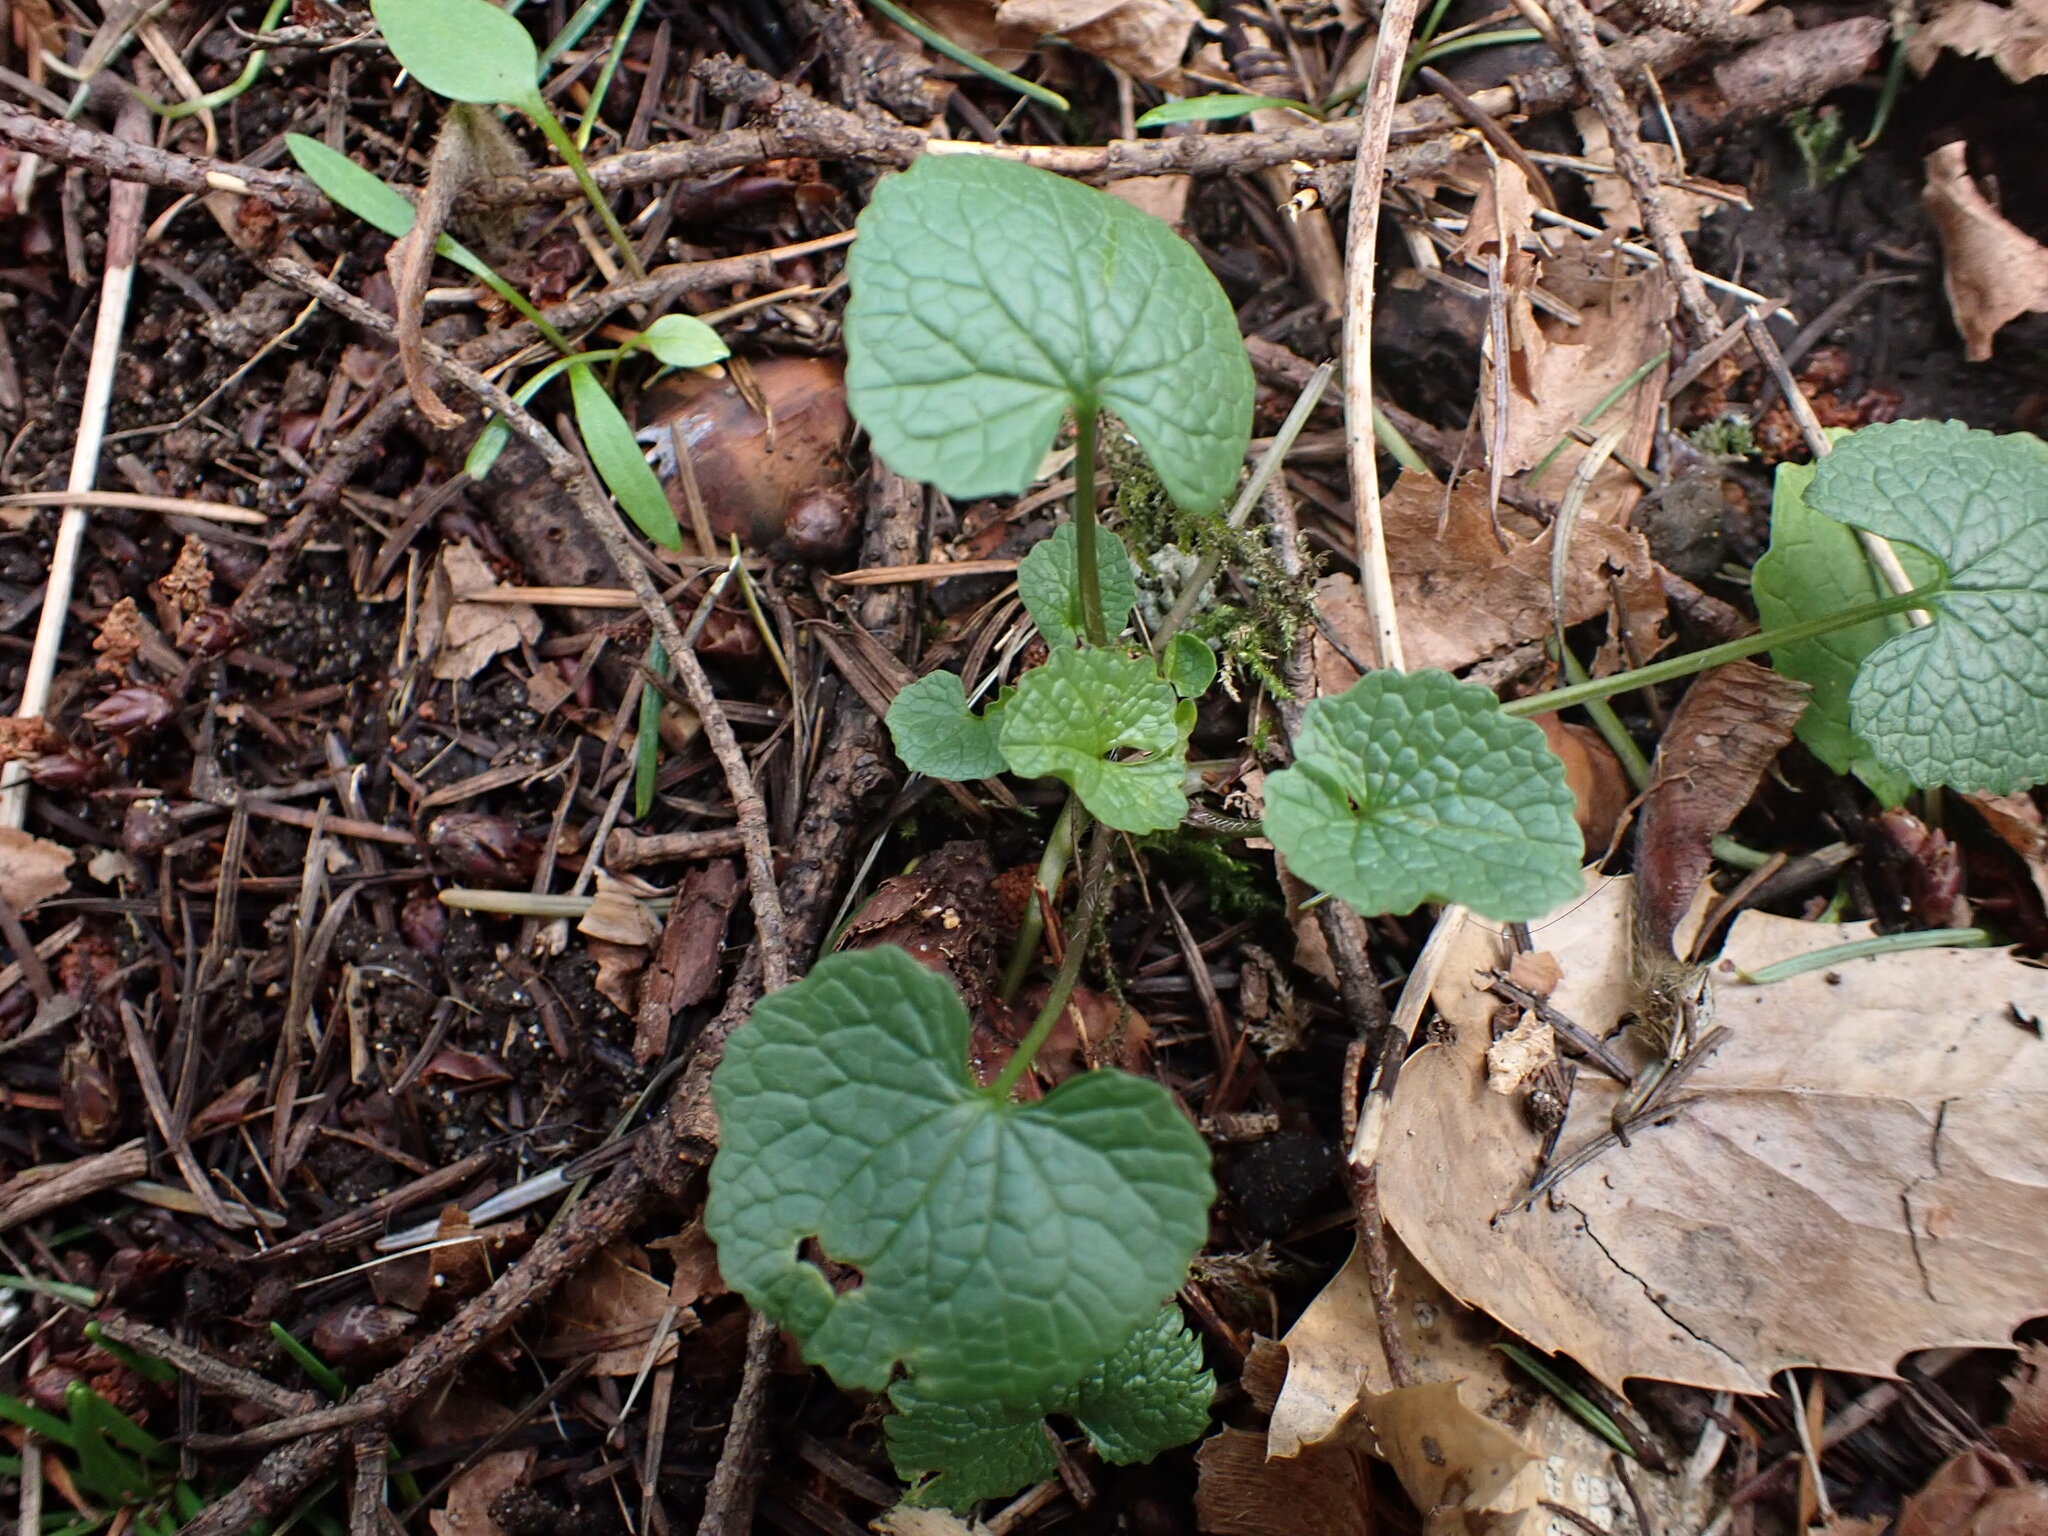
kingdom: Plantae
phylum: Tracheophyta
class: Magnoliopsida
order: Brassicales
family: Brassicaceae
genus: Alliaria
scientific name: Alliaria petiolata
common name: Garlic mustard
